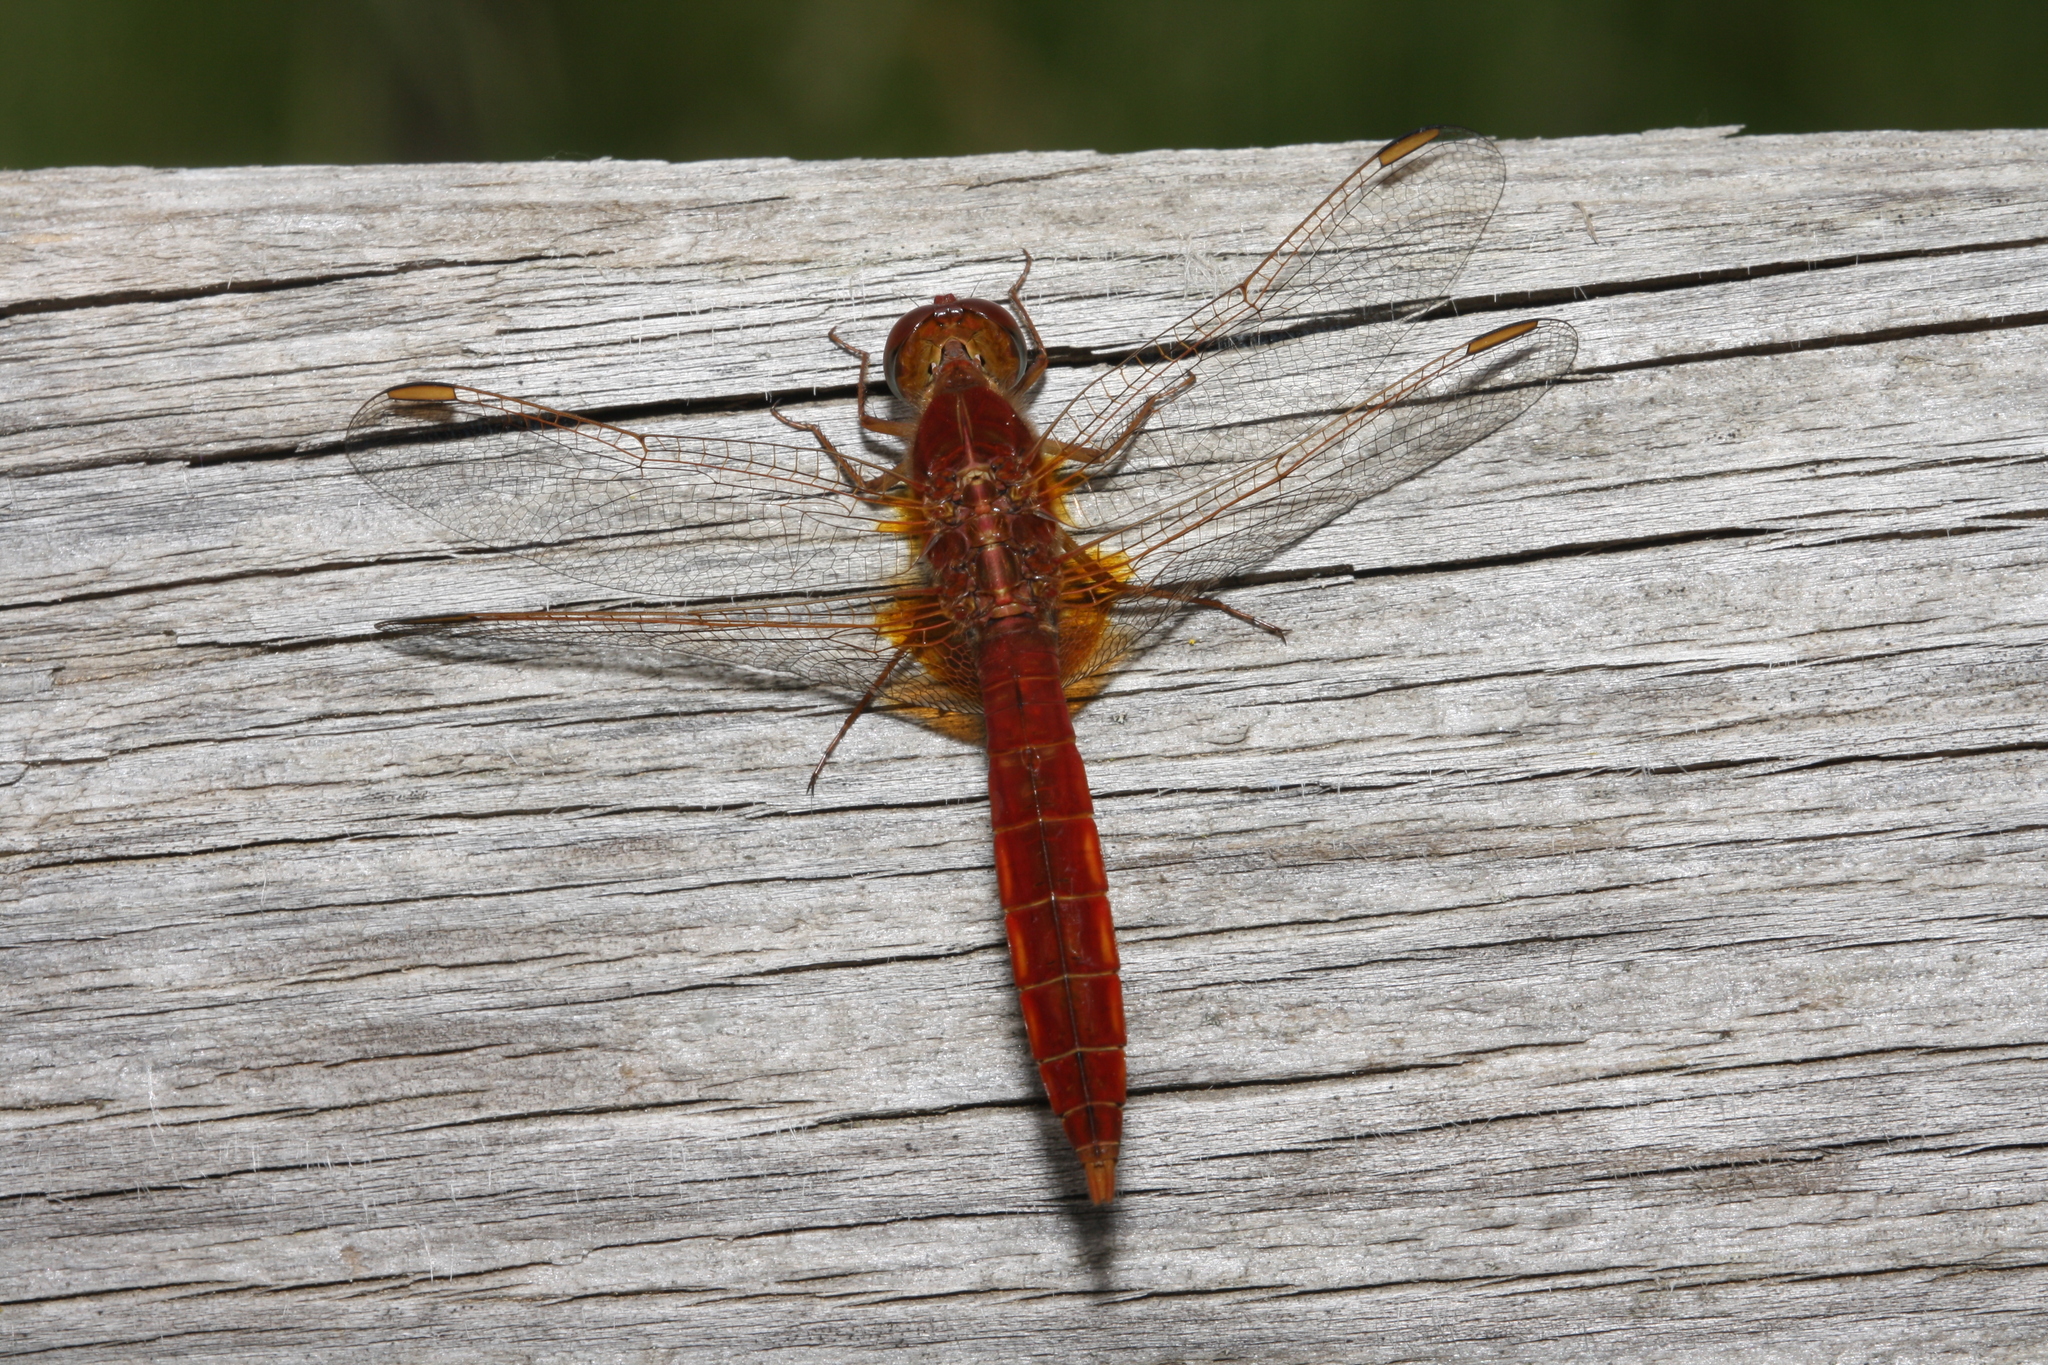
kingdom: Animalia
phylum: Arthropoda
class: Insecta
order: Odonata
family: Libellulidae
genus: Crocothemis
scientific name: Crocothemis erythraea
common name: Scarlet dragonfly
